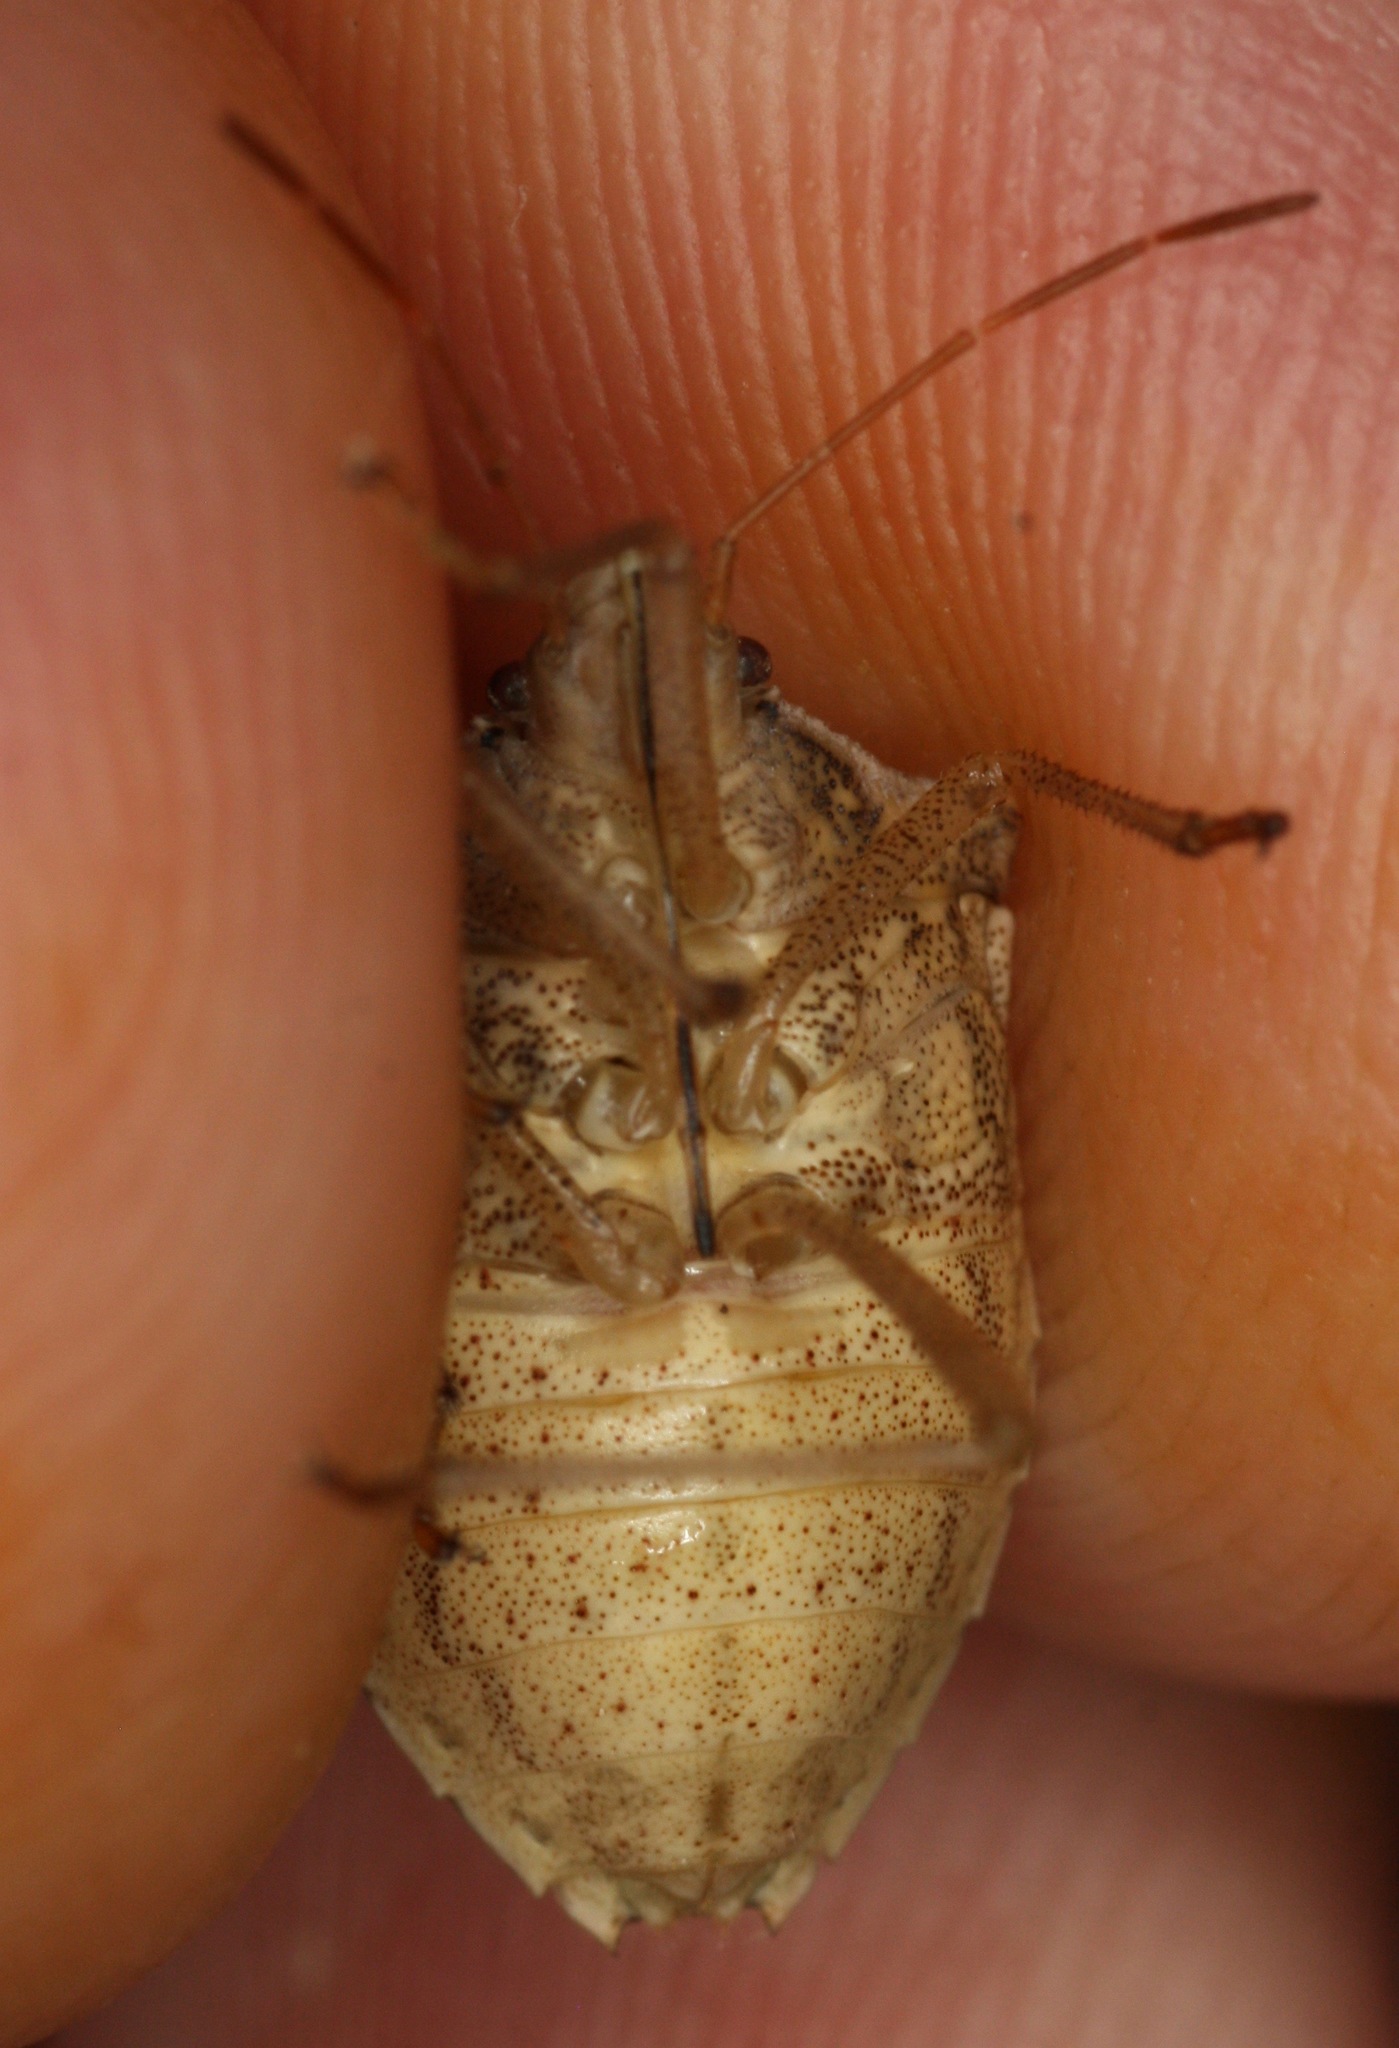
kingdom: Animalia
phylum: Arthropoda
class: Insecta
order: Hemiptera
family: Pentatomidae
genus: Euschistus
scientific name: Euschistus crassus
